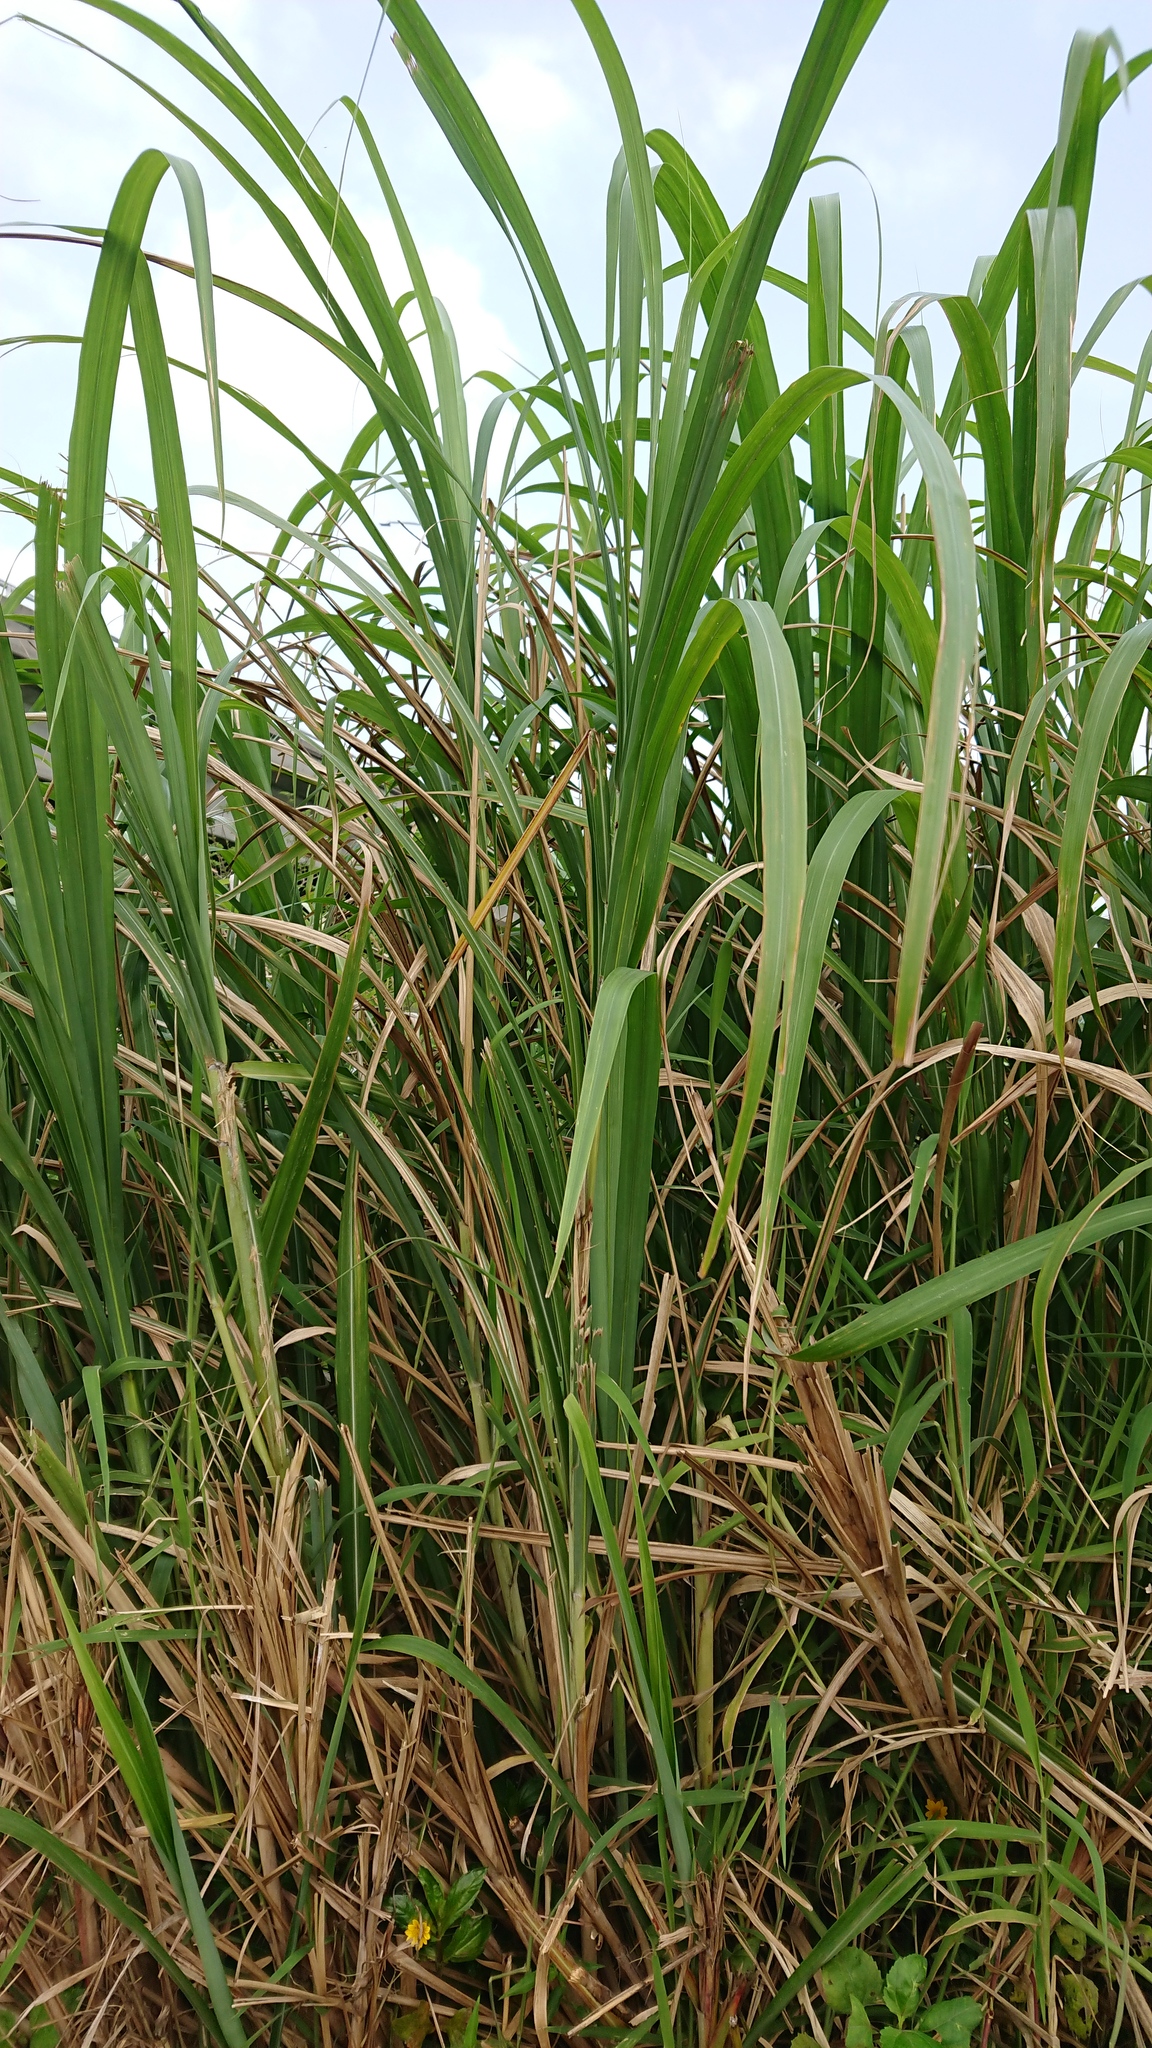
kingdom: Plantae
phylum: Tracheophyta
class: Liliopsida
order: Poales
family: Poaceae
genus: Miscanthus
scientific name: Miscanthus sinensis
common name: Chinese silvergrass
